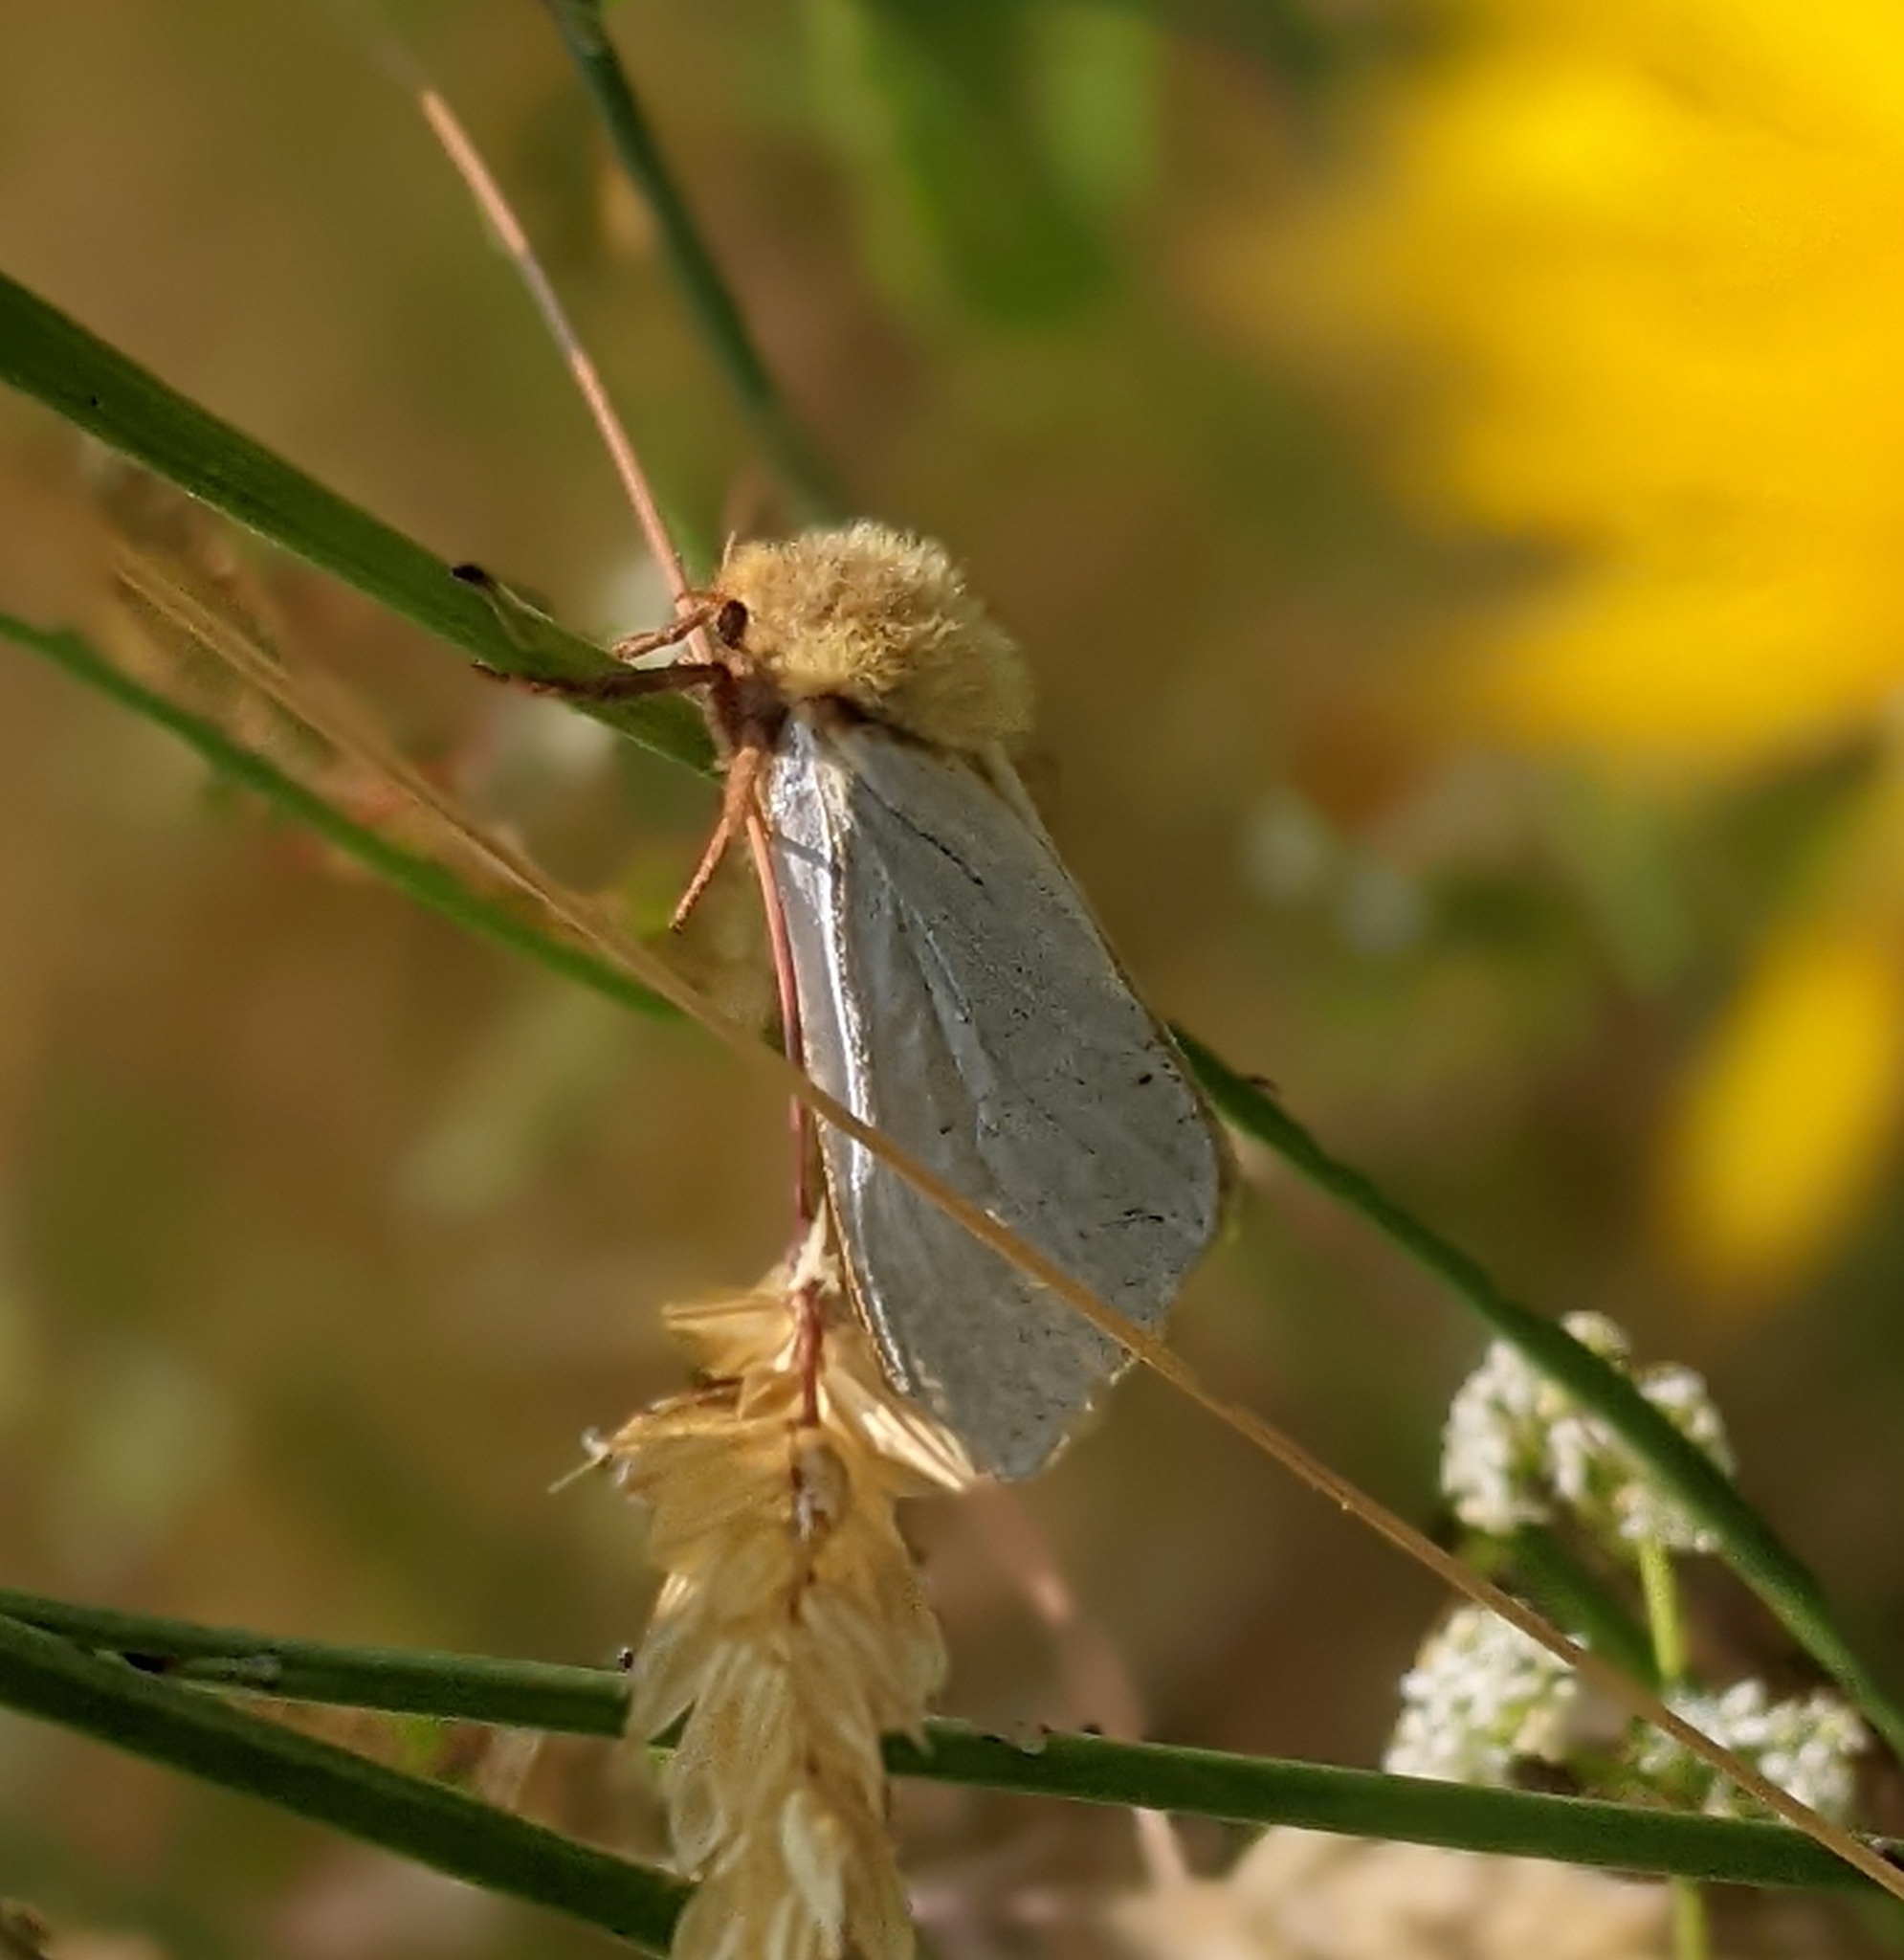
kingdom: Animalia
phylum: Arthropoda
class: Insecta
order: Lepidoptera
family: Hepialidae
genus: Hepialus
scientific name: Hepialus humuli
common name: Ghost moth
